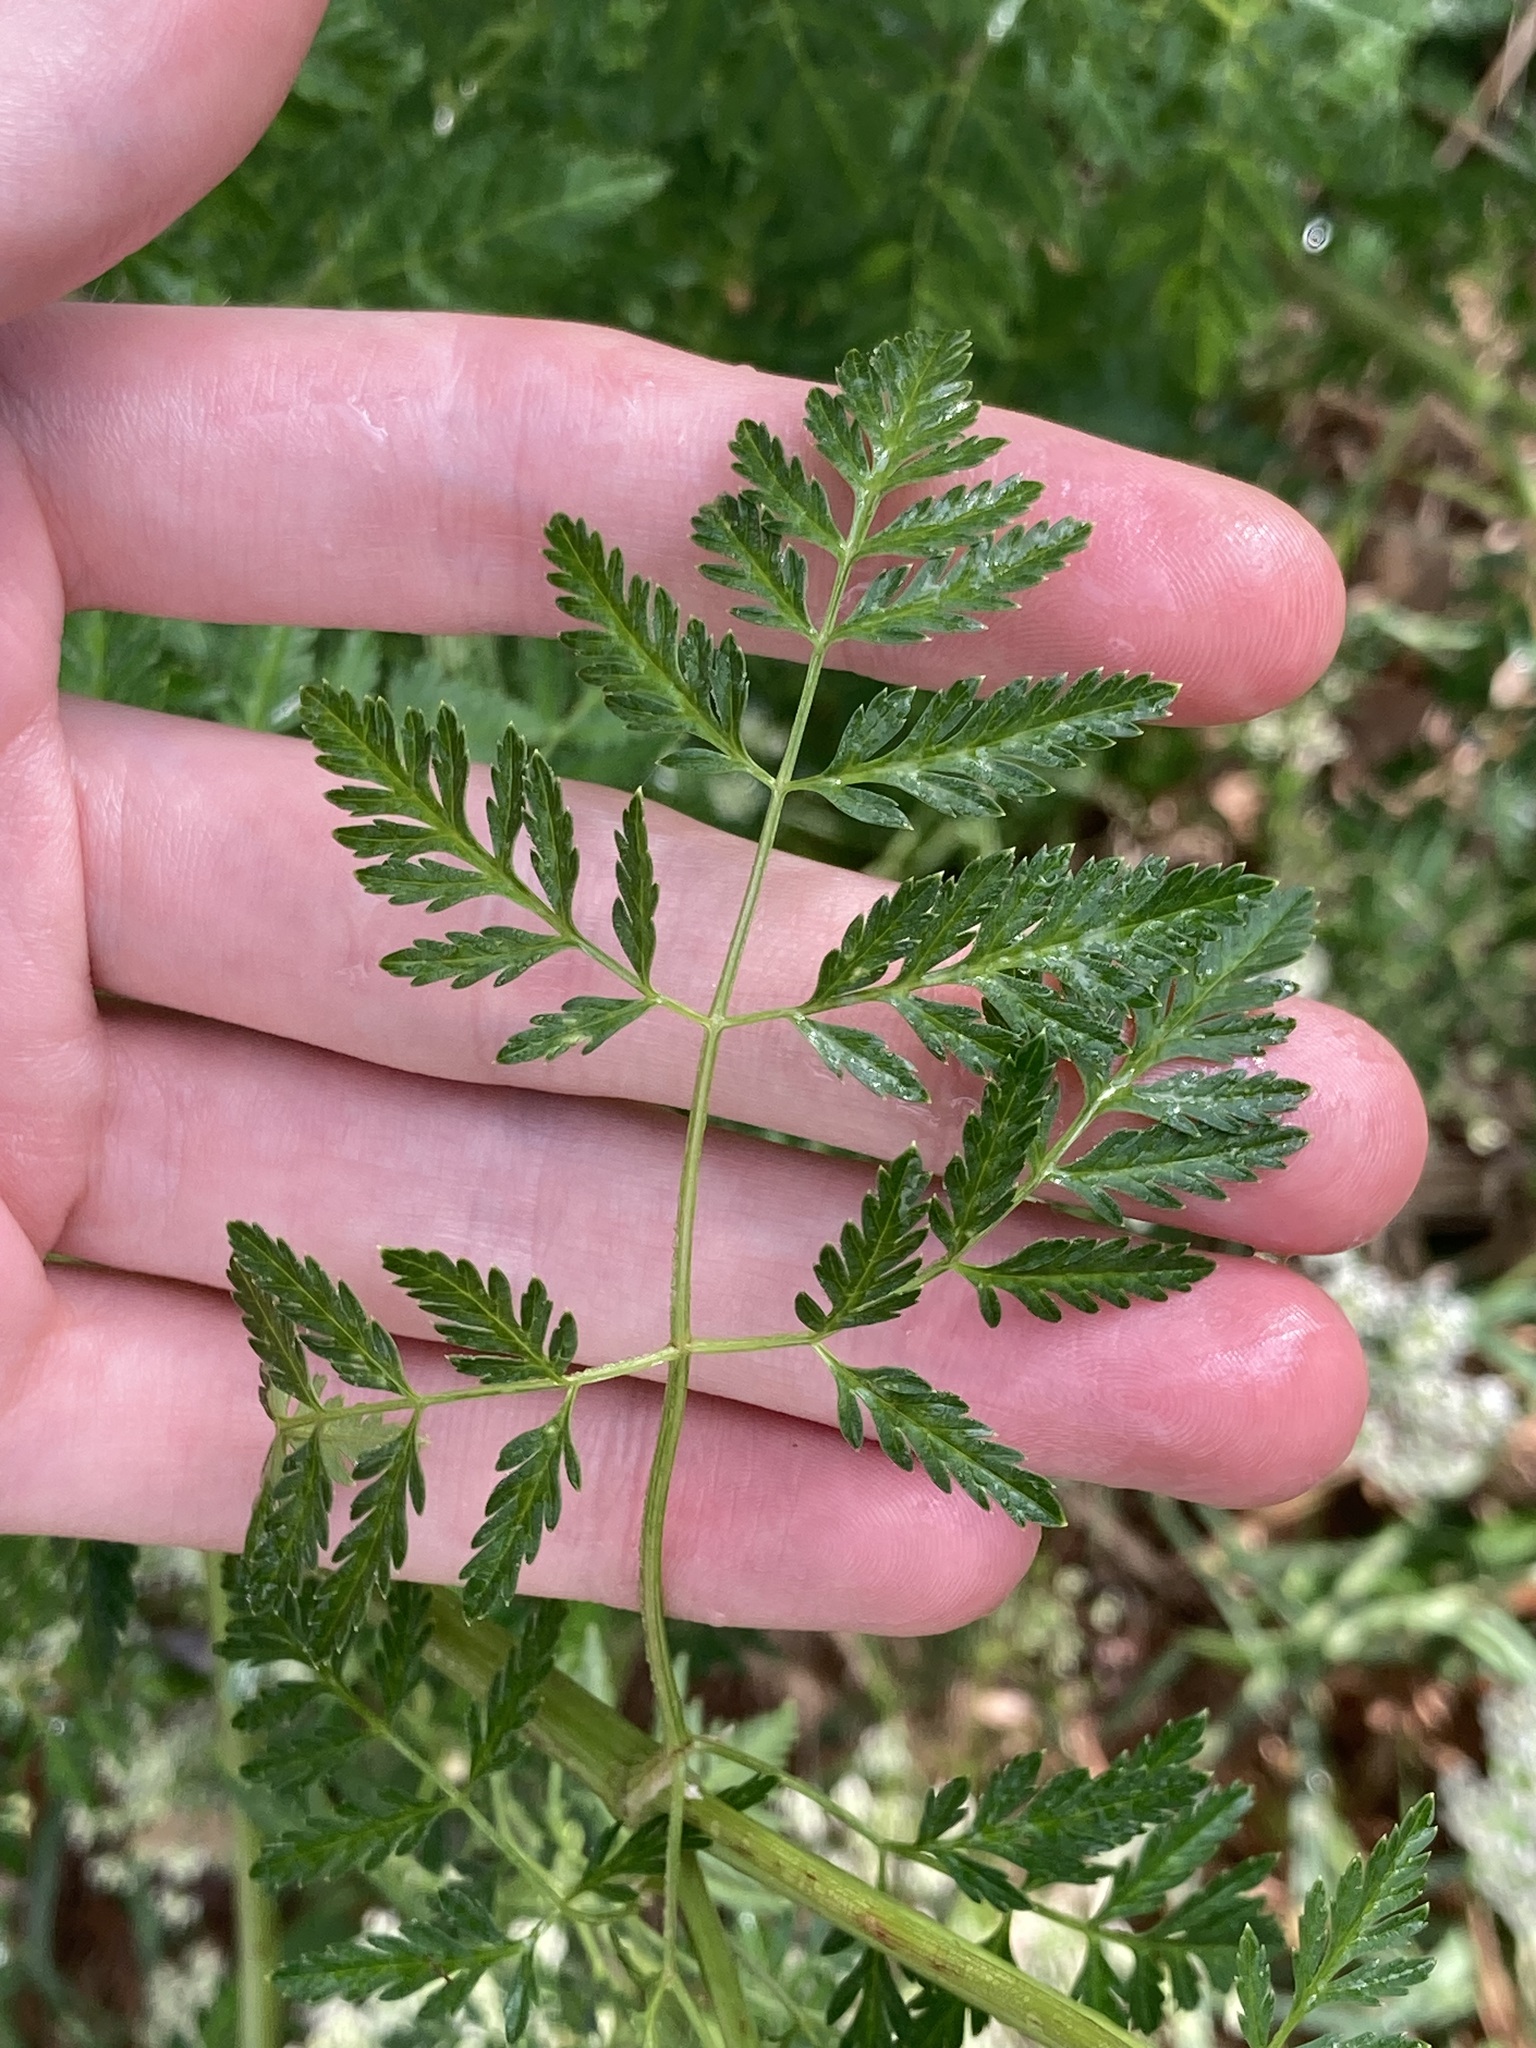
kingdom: Plantae
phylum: Tracheophyta
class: Magnoliopsida
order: Apiales
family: Apiaceae
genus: Conium
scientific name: Conium maculatum
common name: Hemlock
